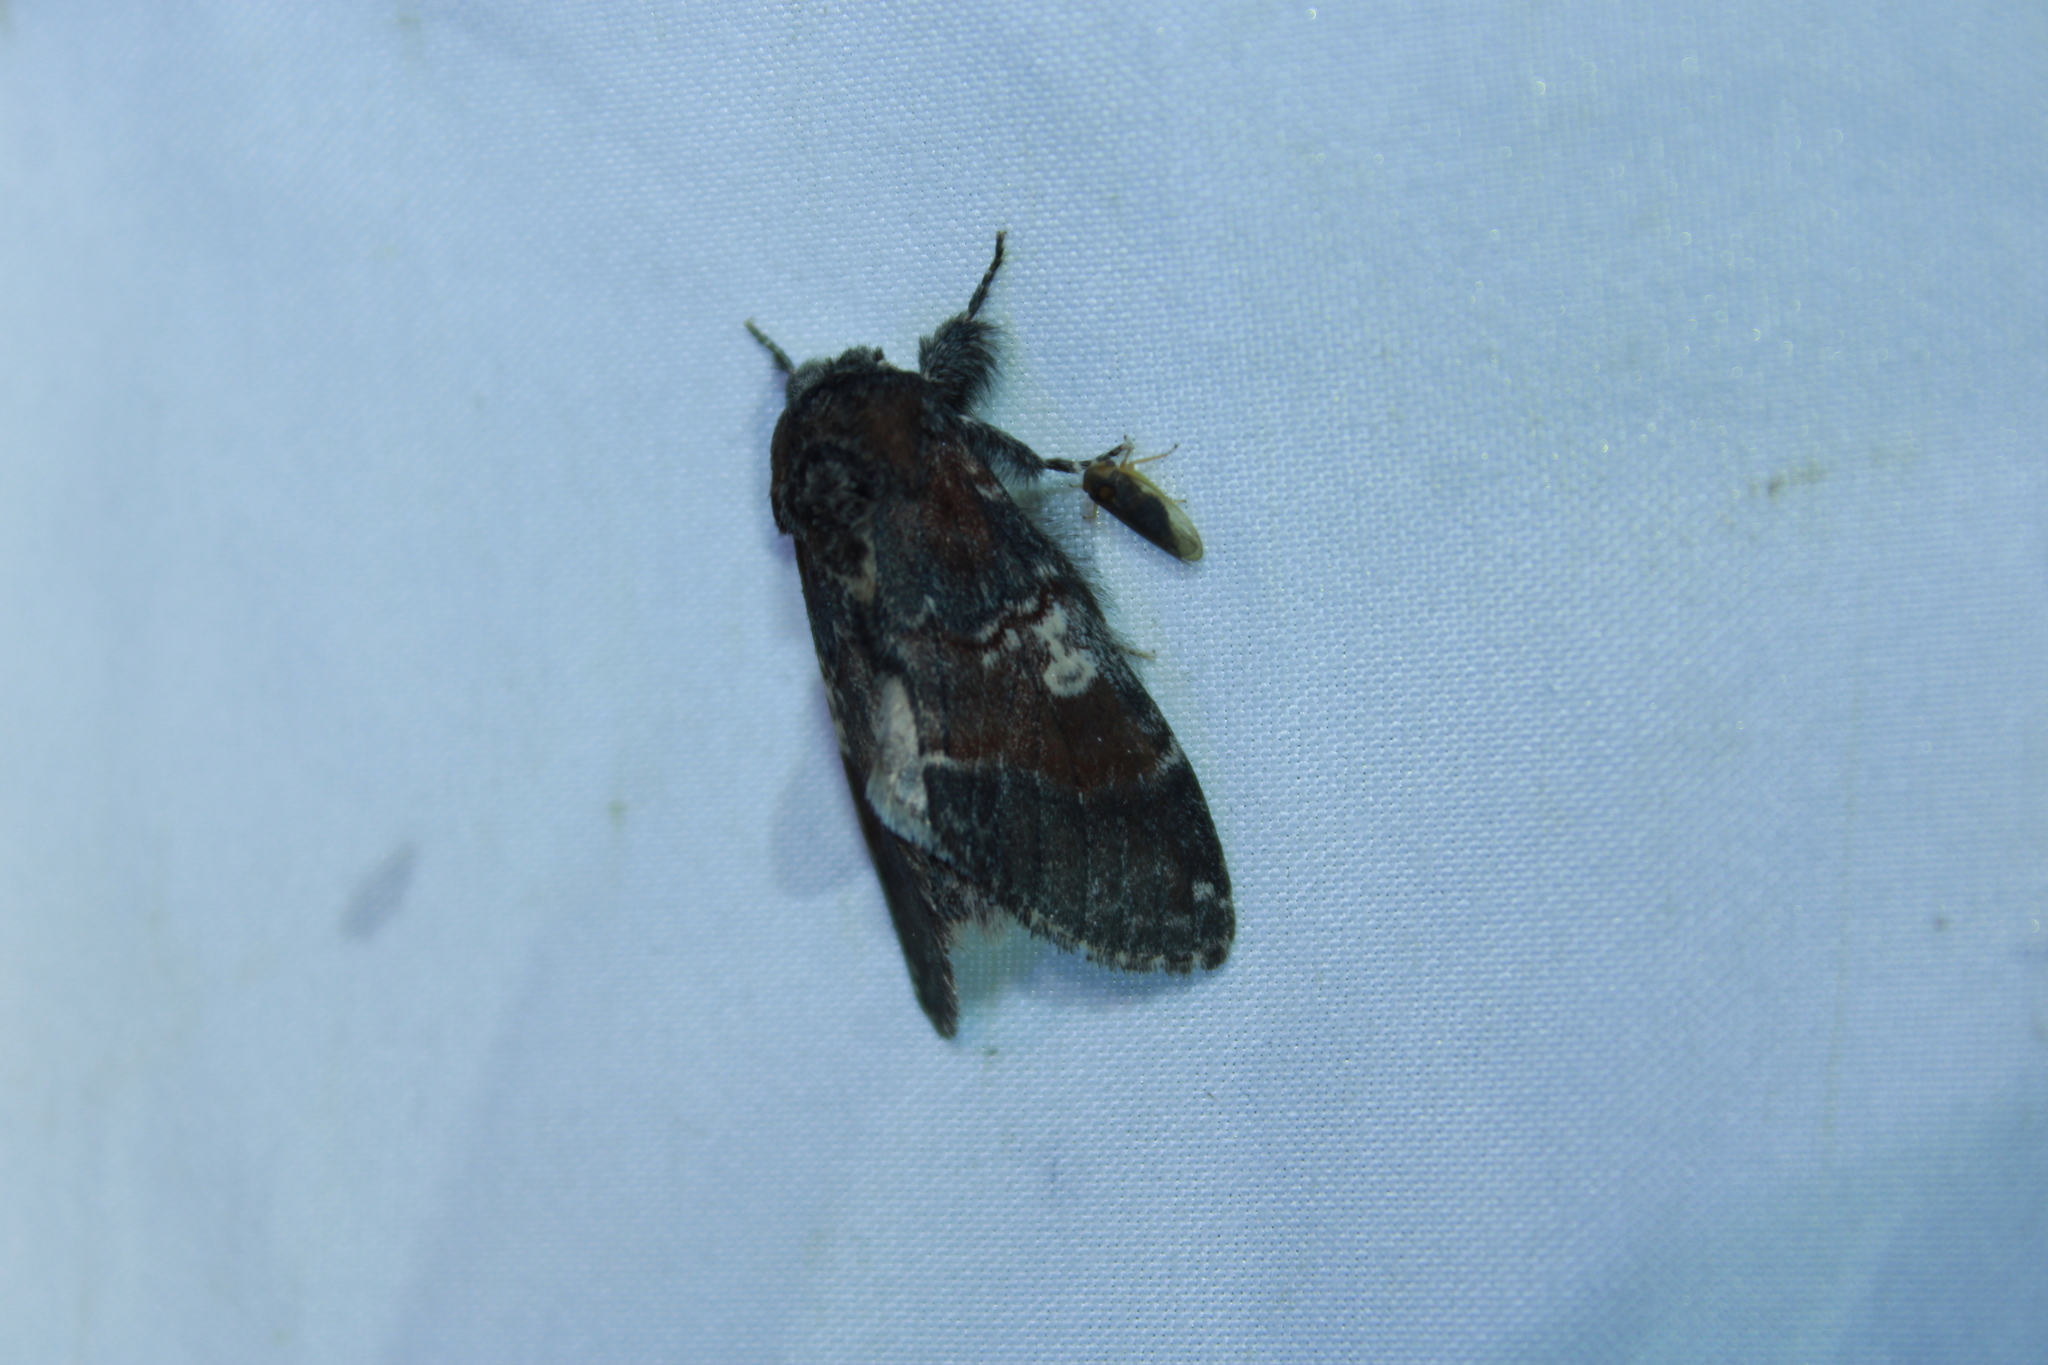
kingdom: Animalia
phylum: Arthropoda
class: Insecta
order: Lepidoptera
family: Notodontidae
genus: Peridea
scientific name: Peridea ferruginea
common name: Chocolate prominent
